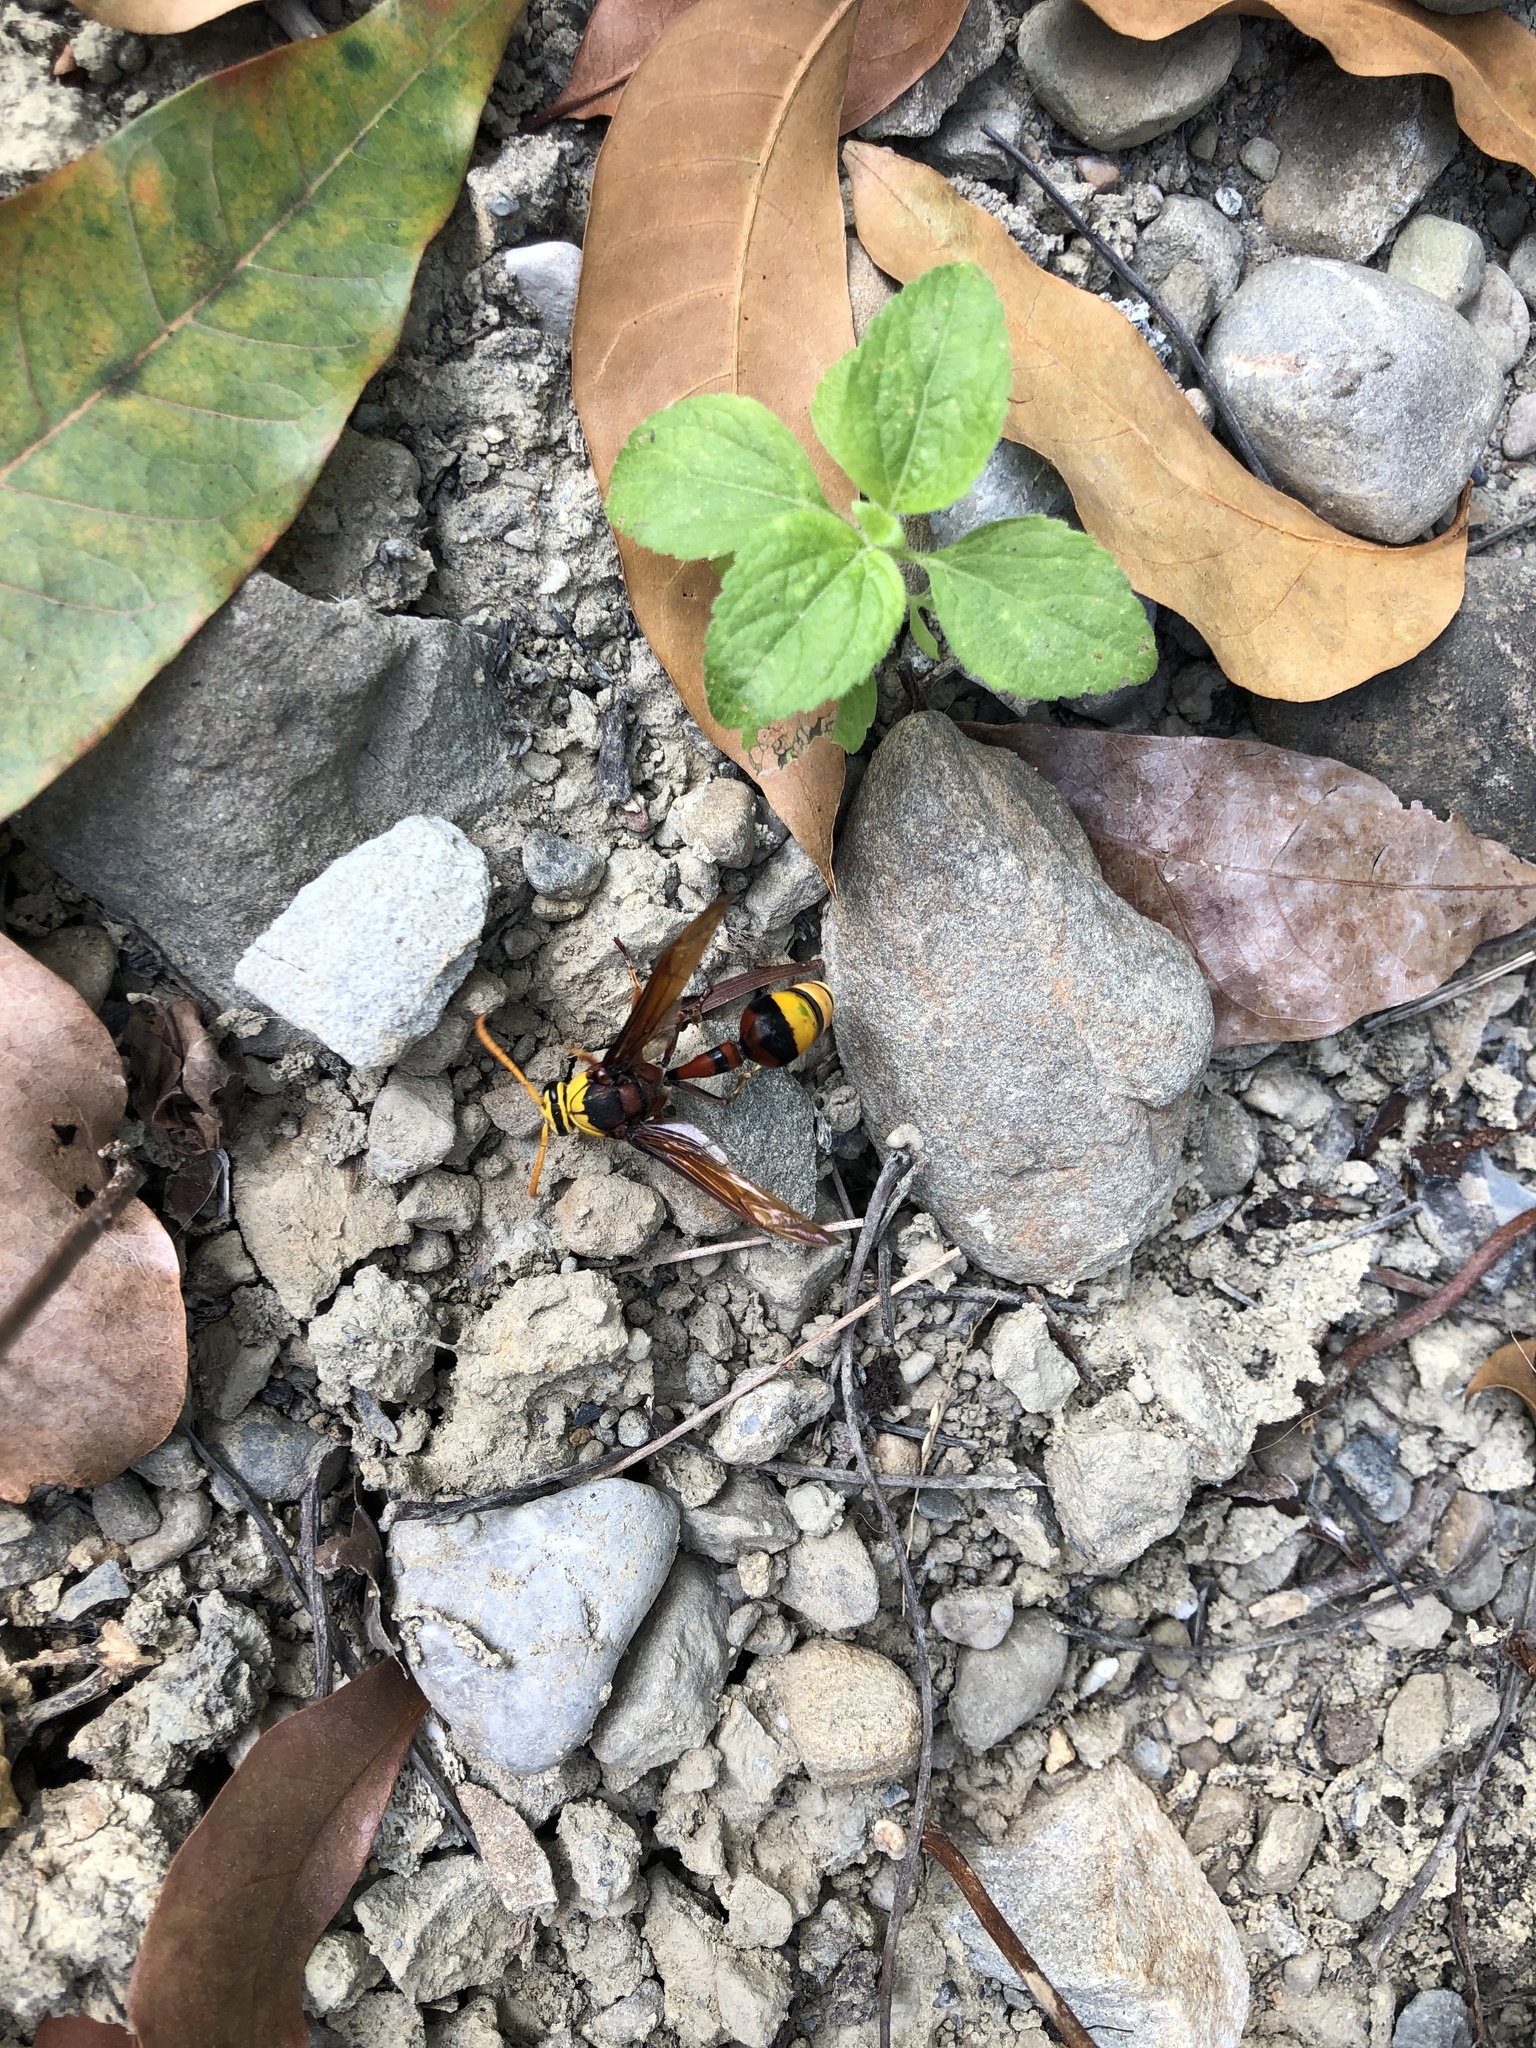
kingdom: Animalia
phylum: Arthropoda
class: Insecta
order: Hymenoptera
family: Eumenidae
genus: Delta
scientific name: Delta pyriforme
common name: Wasp
